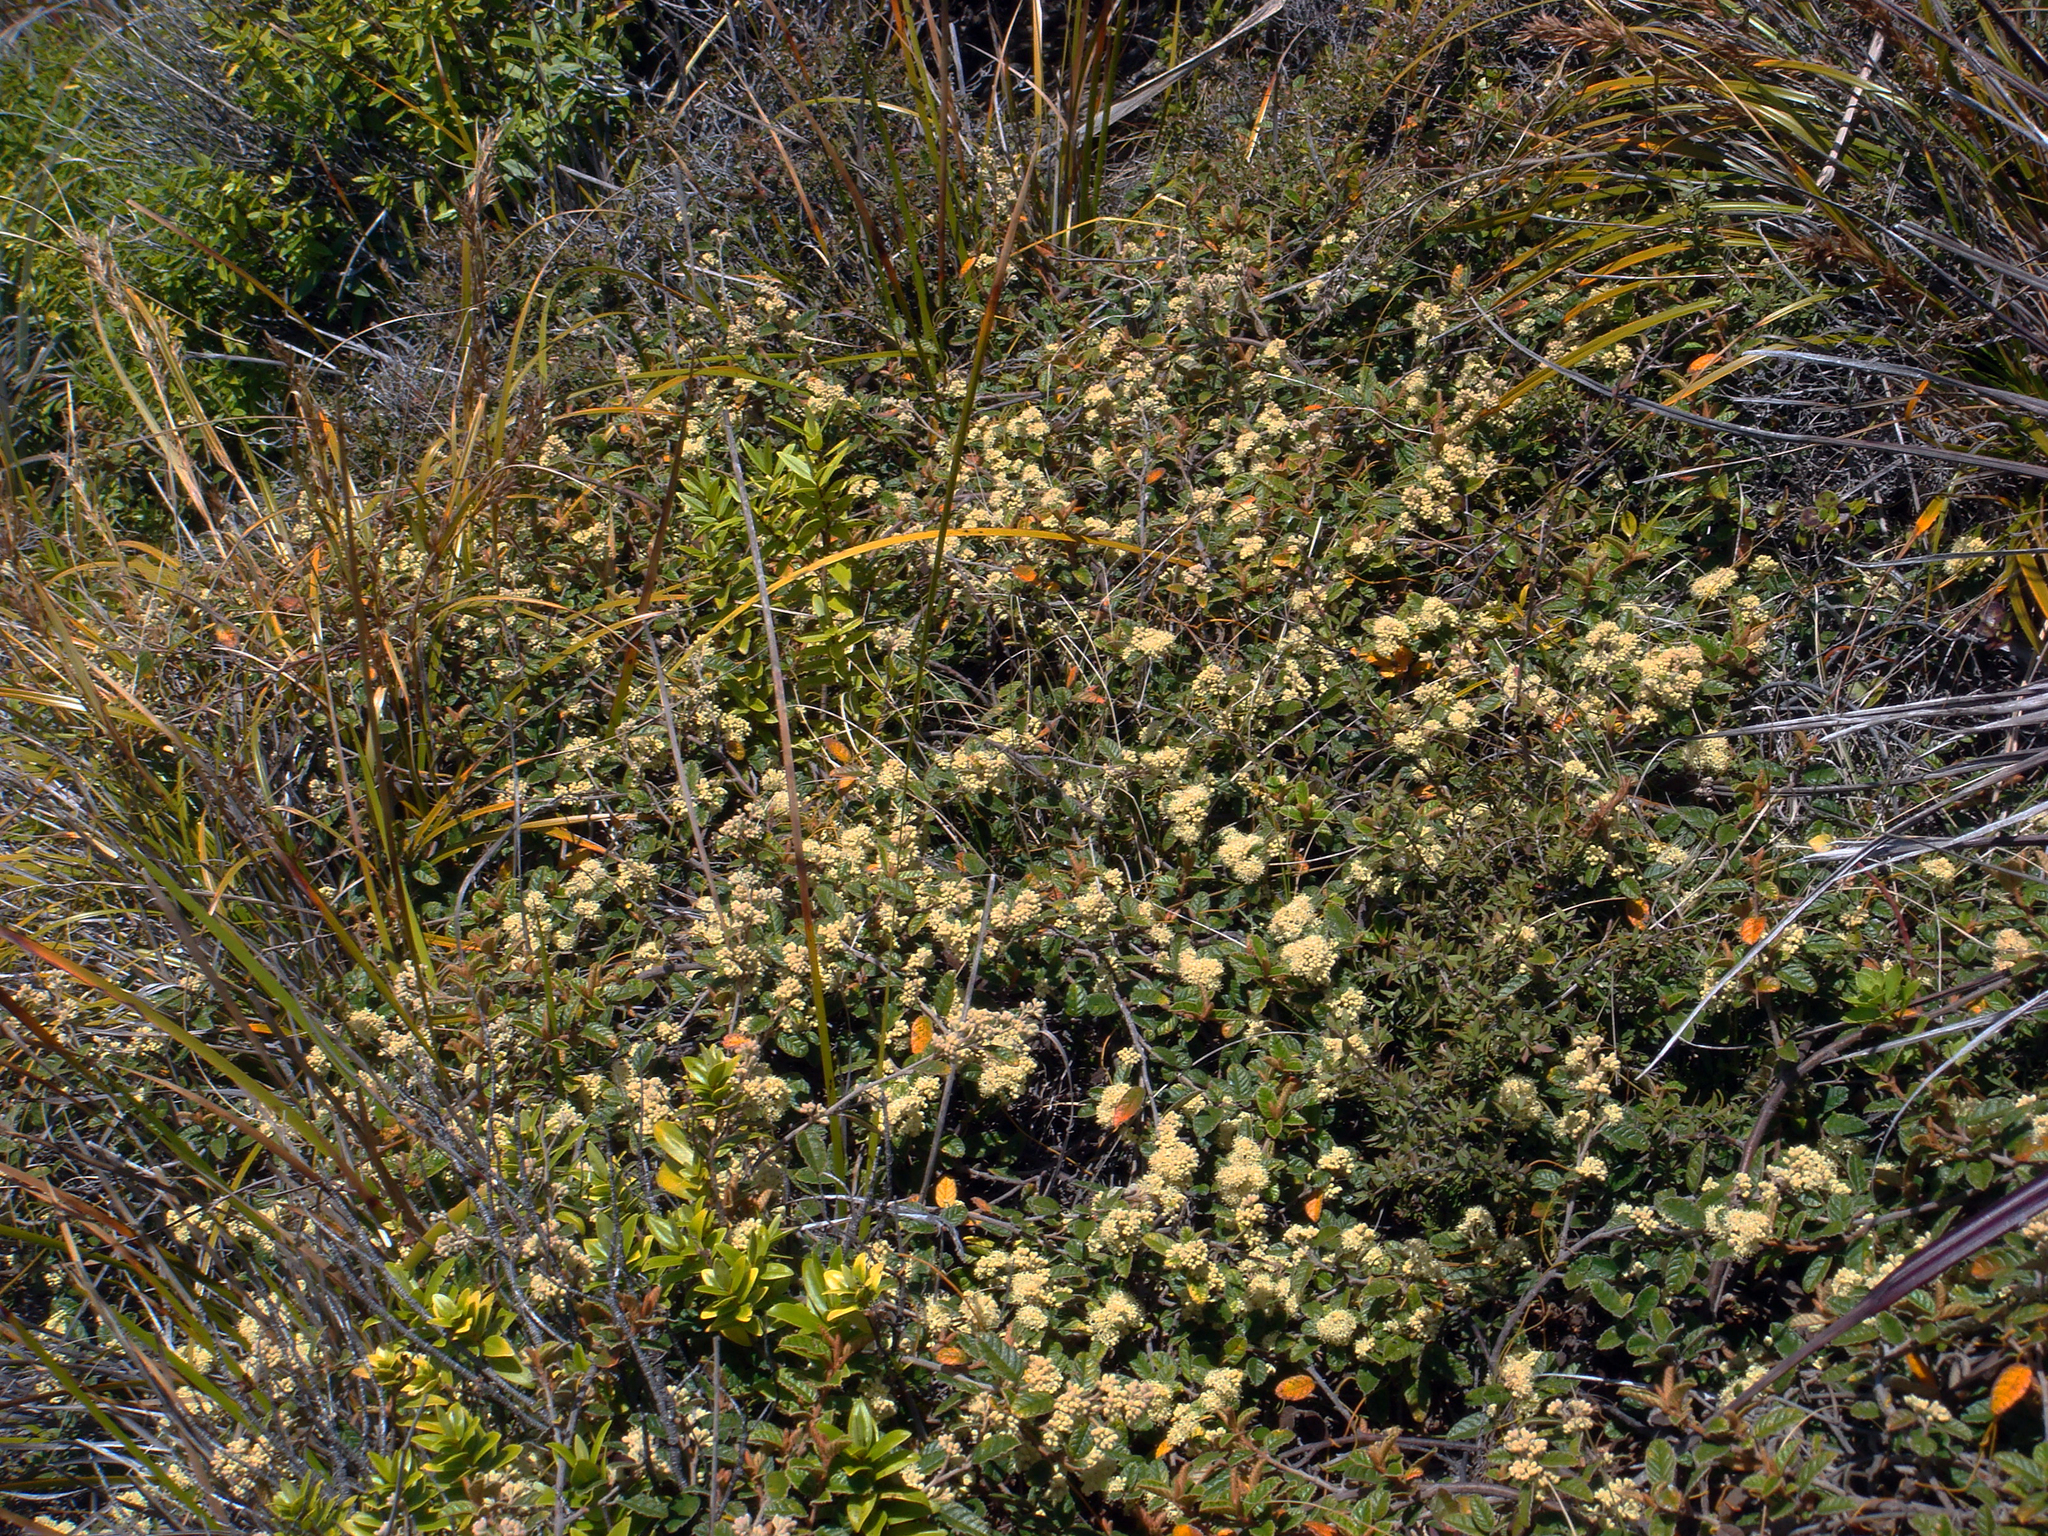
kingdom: Plantae
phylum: Tracheophyta
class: Magnoliopsida
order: Rosales
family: Rhamnaceae
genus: Pomaderris
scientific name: Pomaderris edgerleyi
